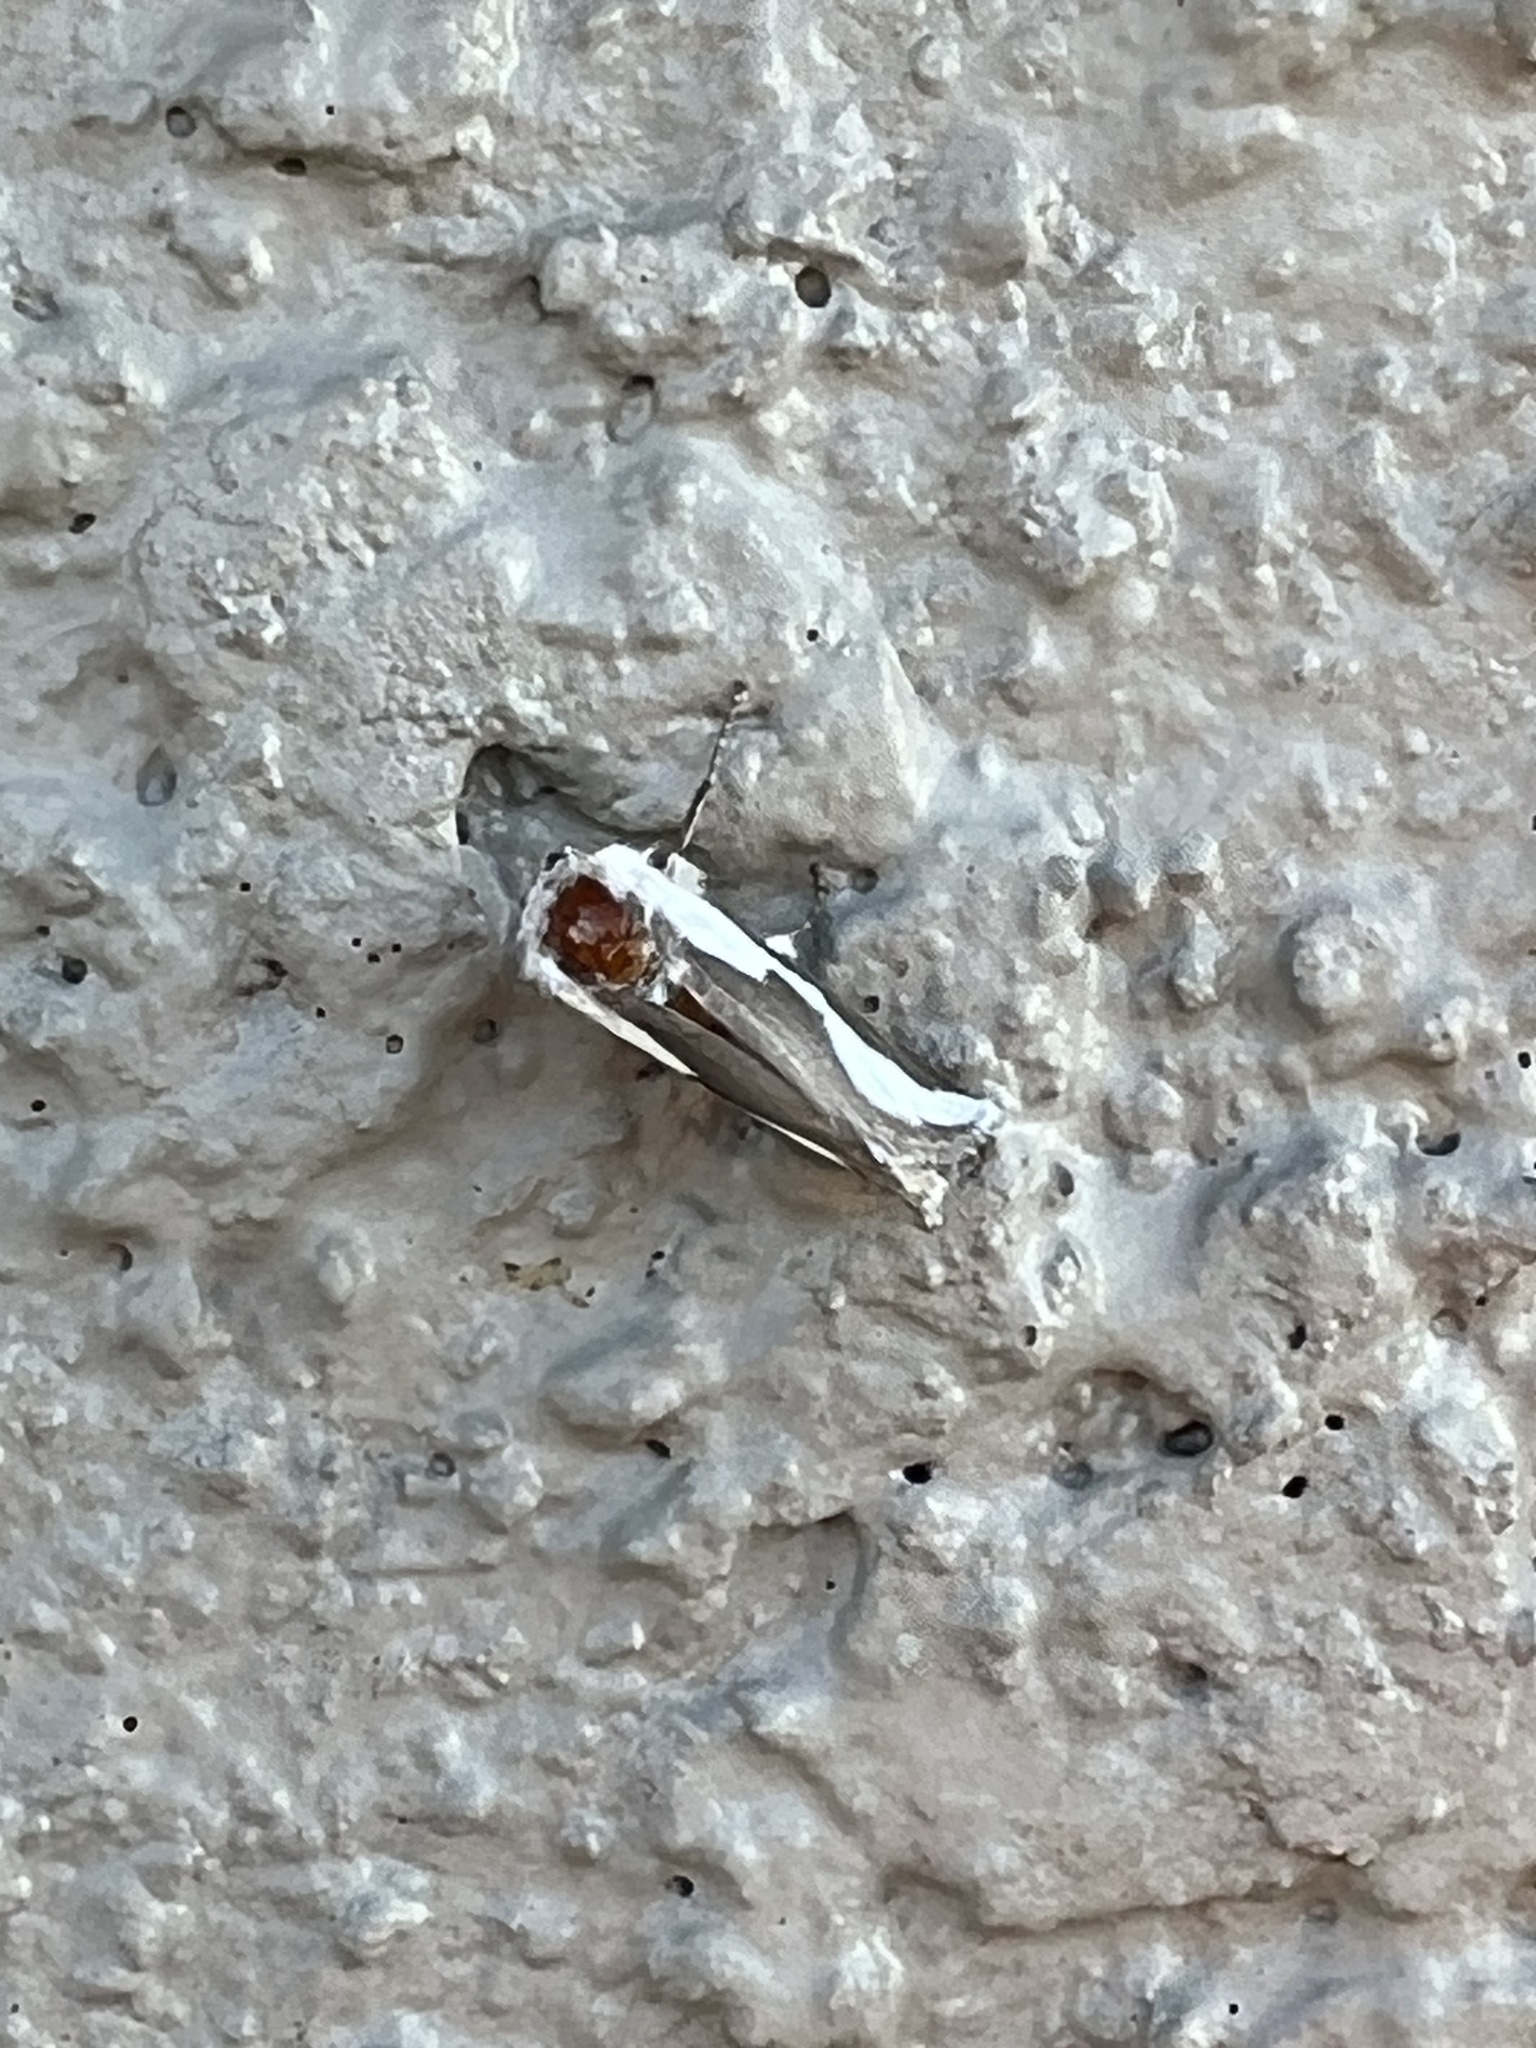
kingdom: Animalia
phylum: Arthropoda
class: Insecta
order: Lepidoptera
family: Megalopygidae
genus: Norape
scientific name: Norape tener
